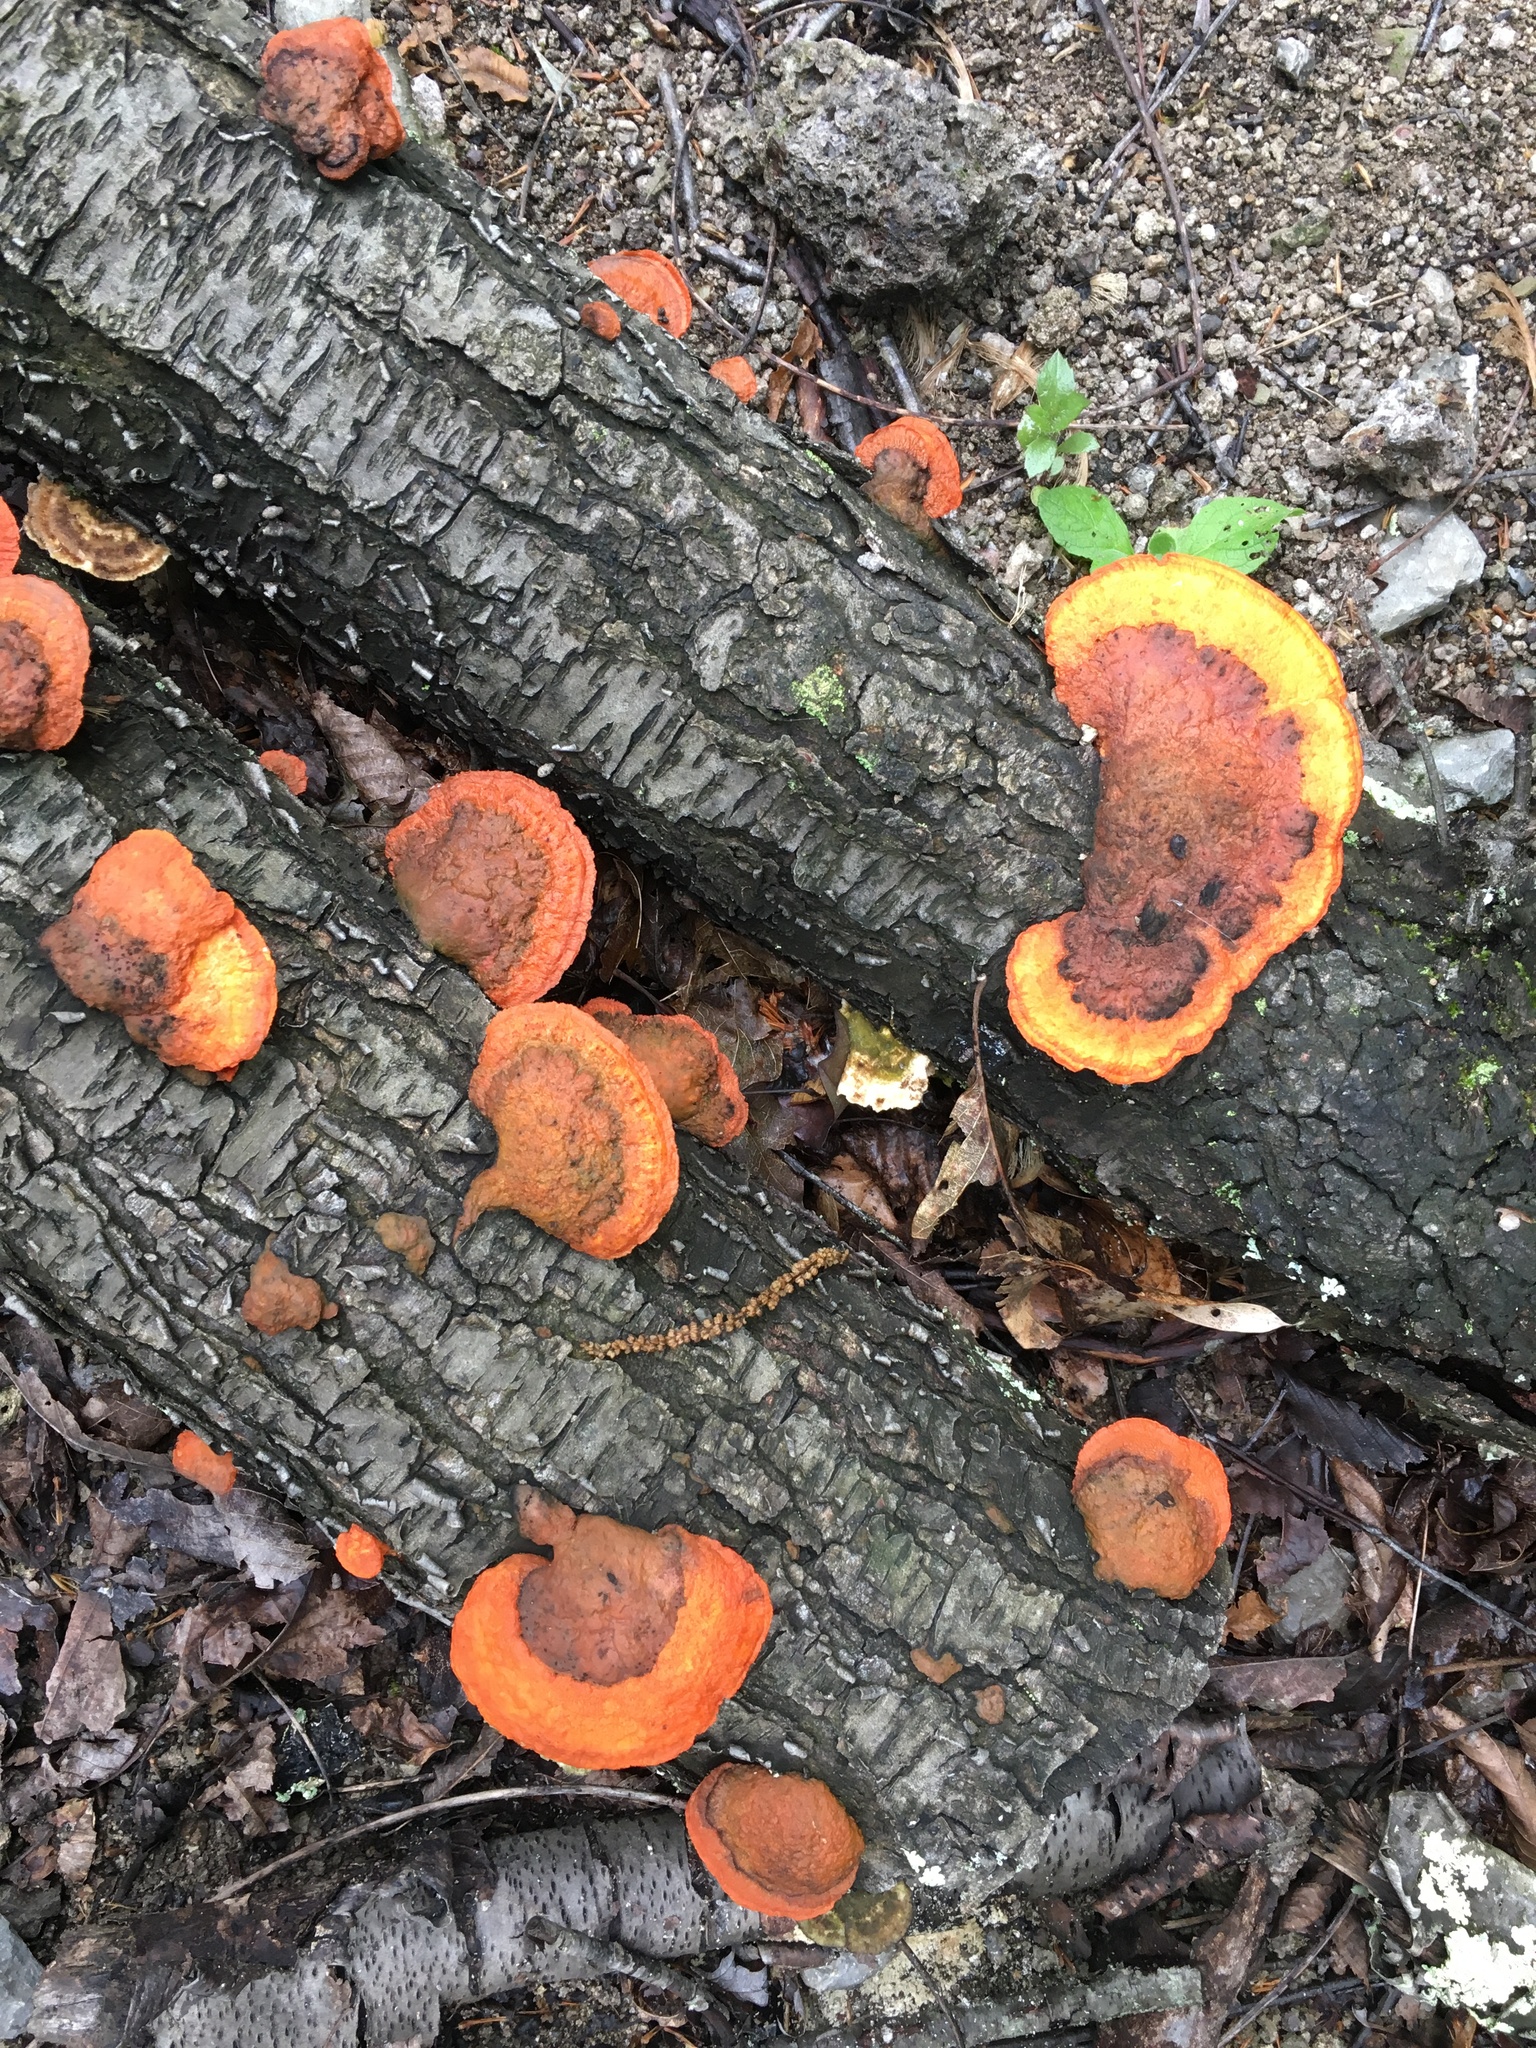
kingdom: Fungi
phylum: Basidiomycota
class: Agaricomycetes
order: Polyporales
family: Polyporaceae
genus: Trametes
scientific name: Trametes cinnabarina
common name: Northern cinnabar polypore
